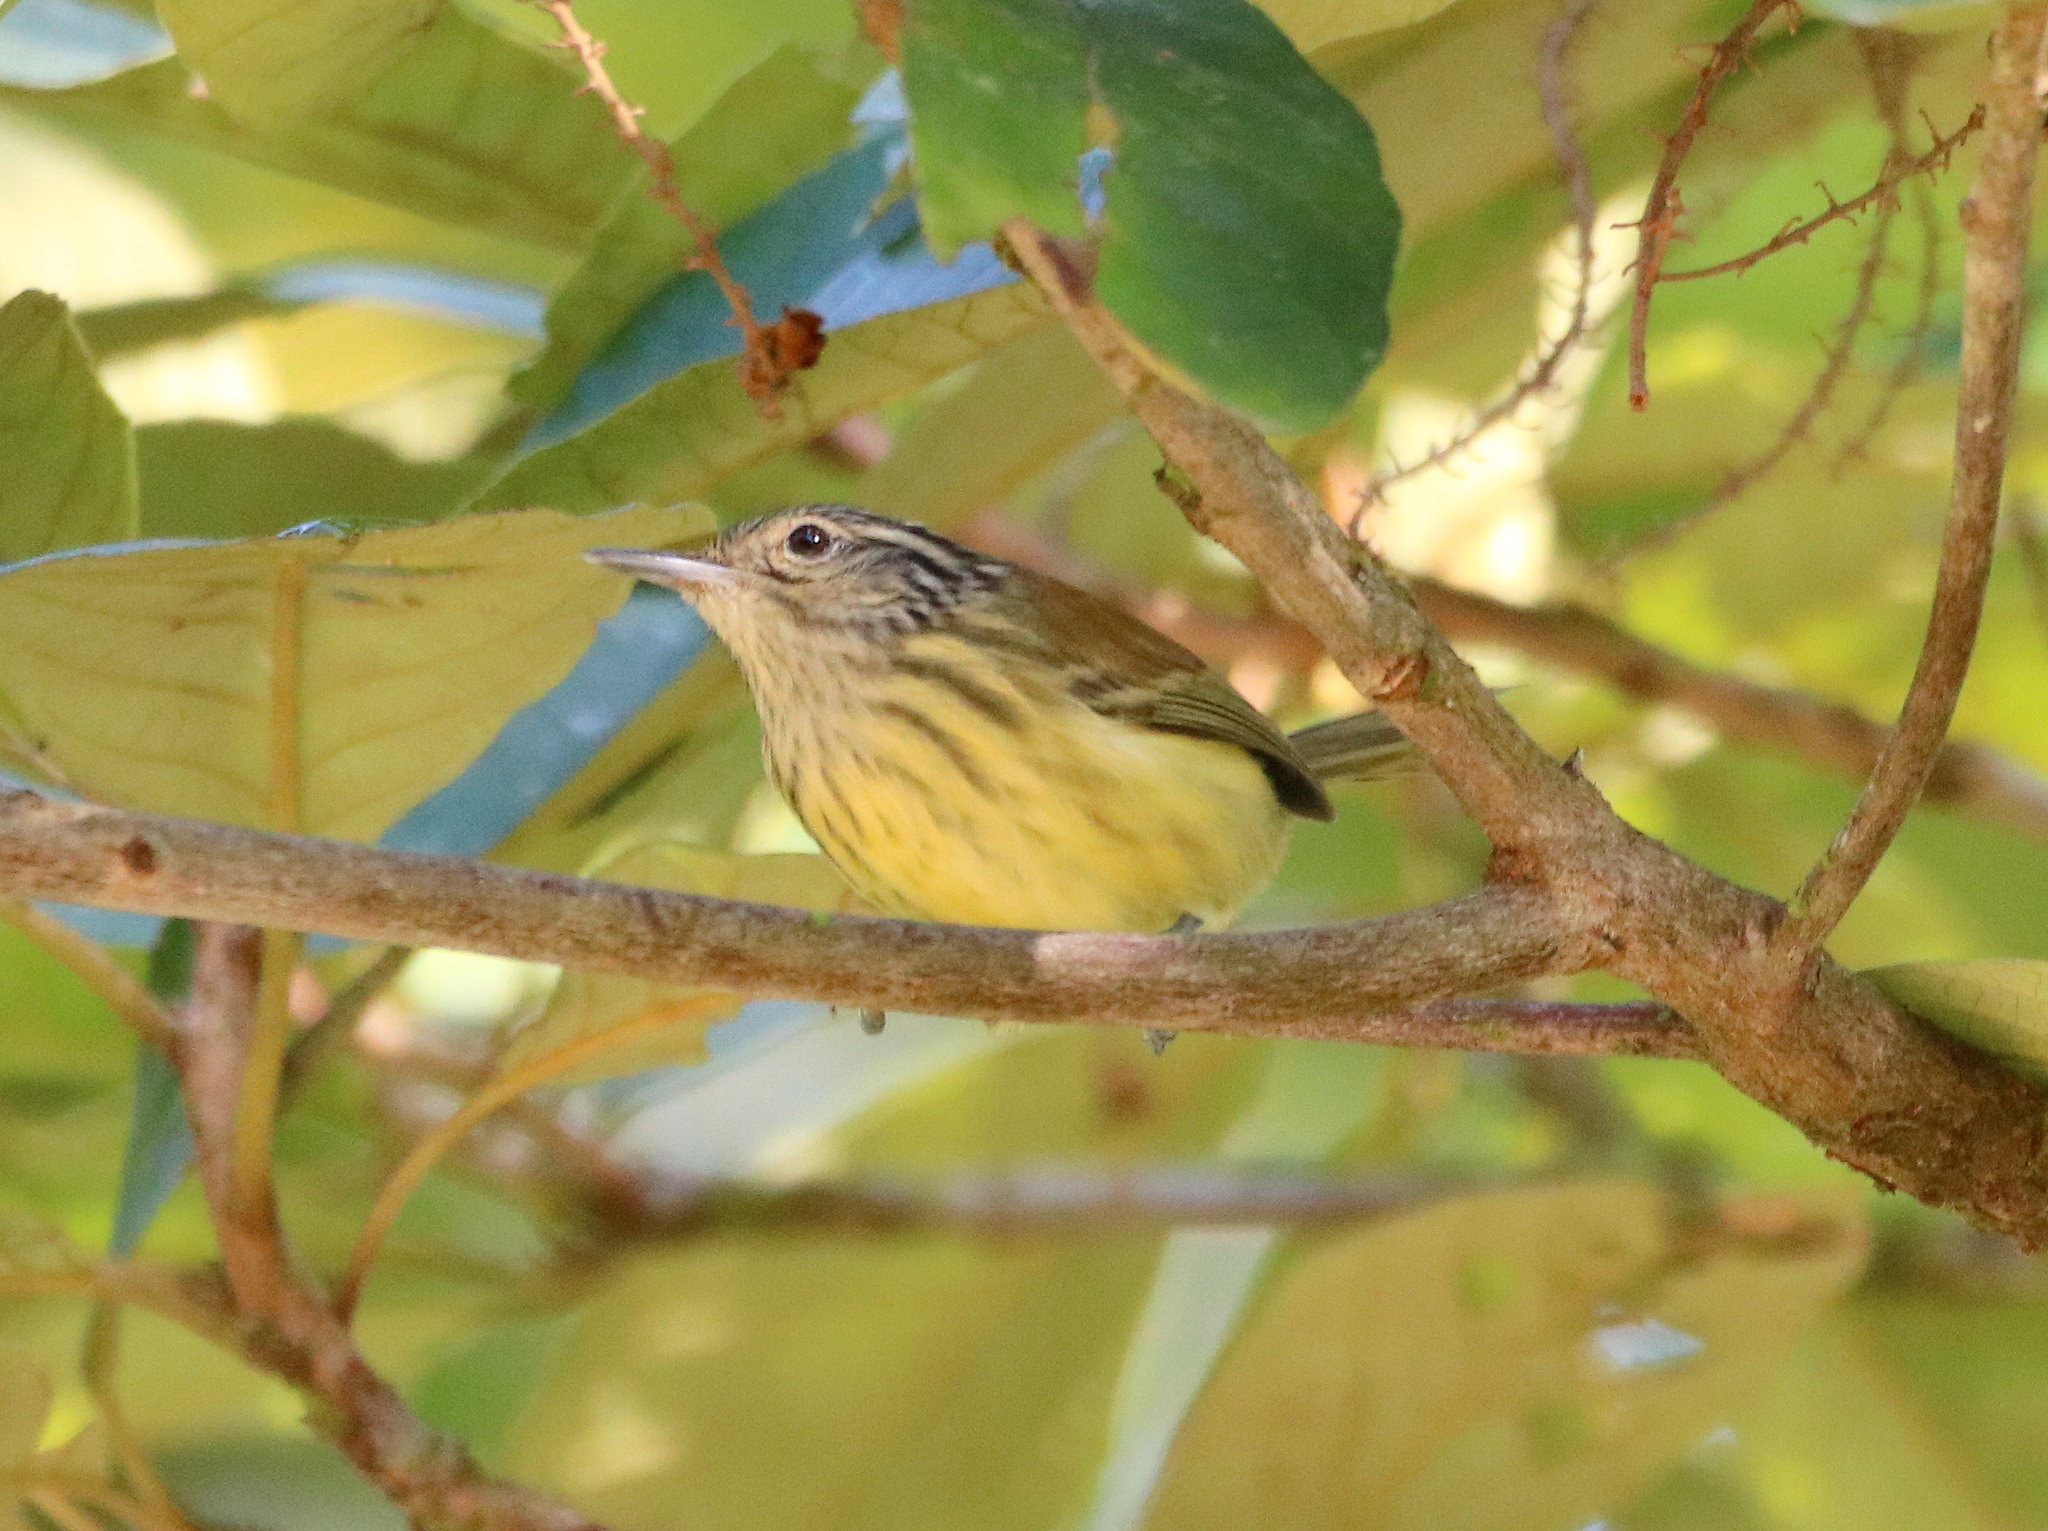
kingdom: Animalia
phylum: Chordata
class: Aves
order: Passeriformes
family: Thamnophilidae
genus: Terenura
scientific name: Terenura maculata
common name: Streak-capped antwren
